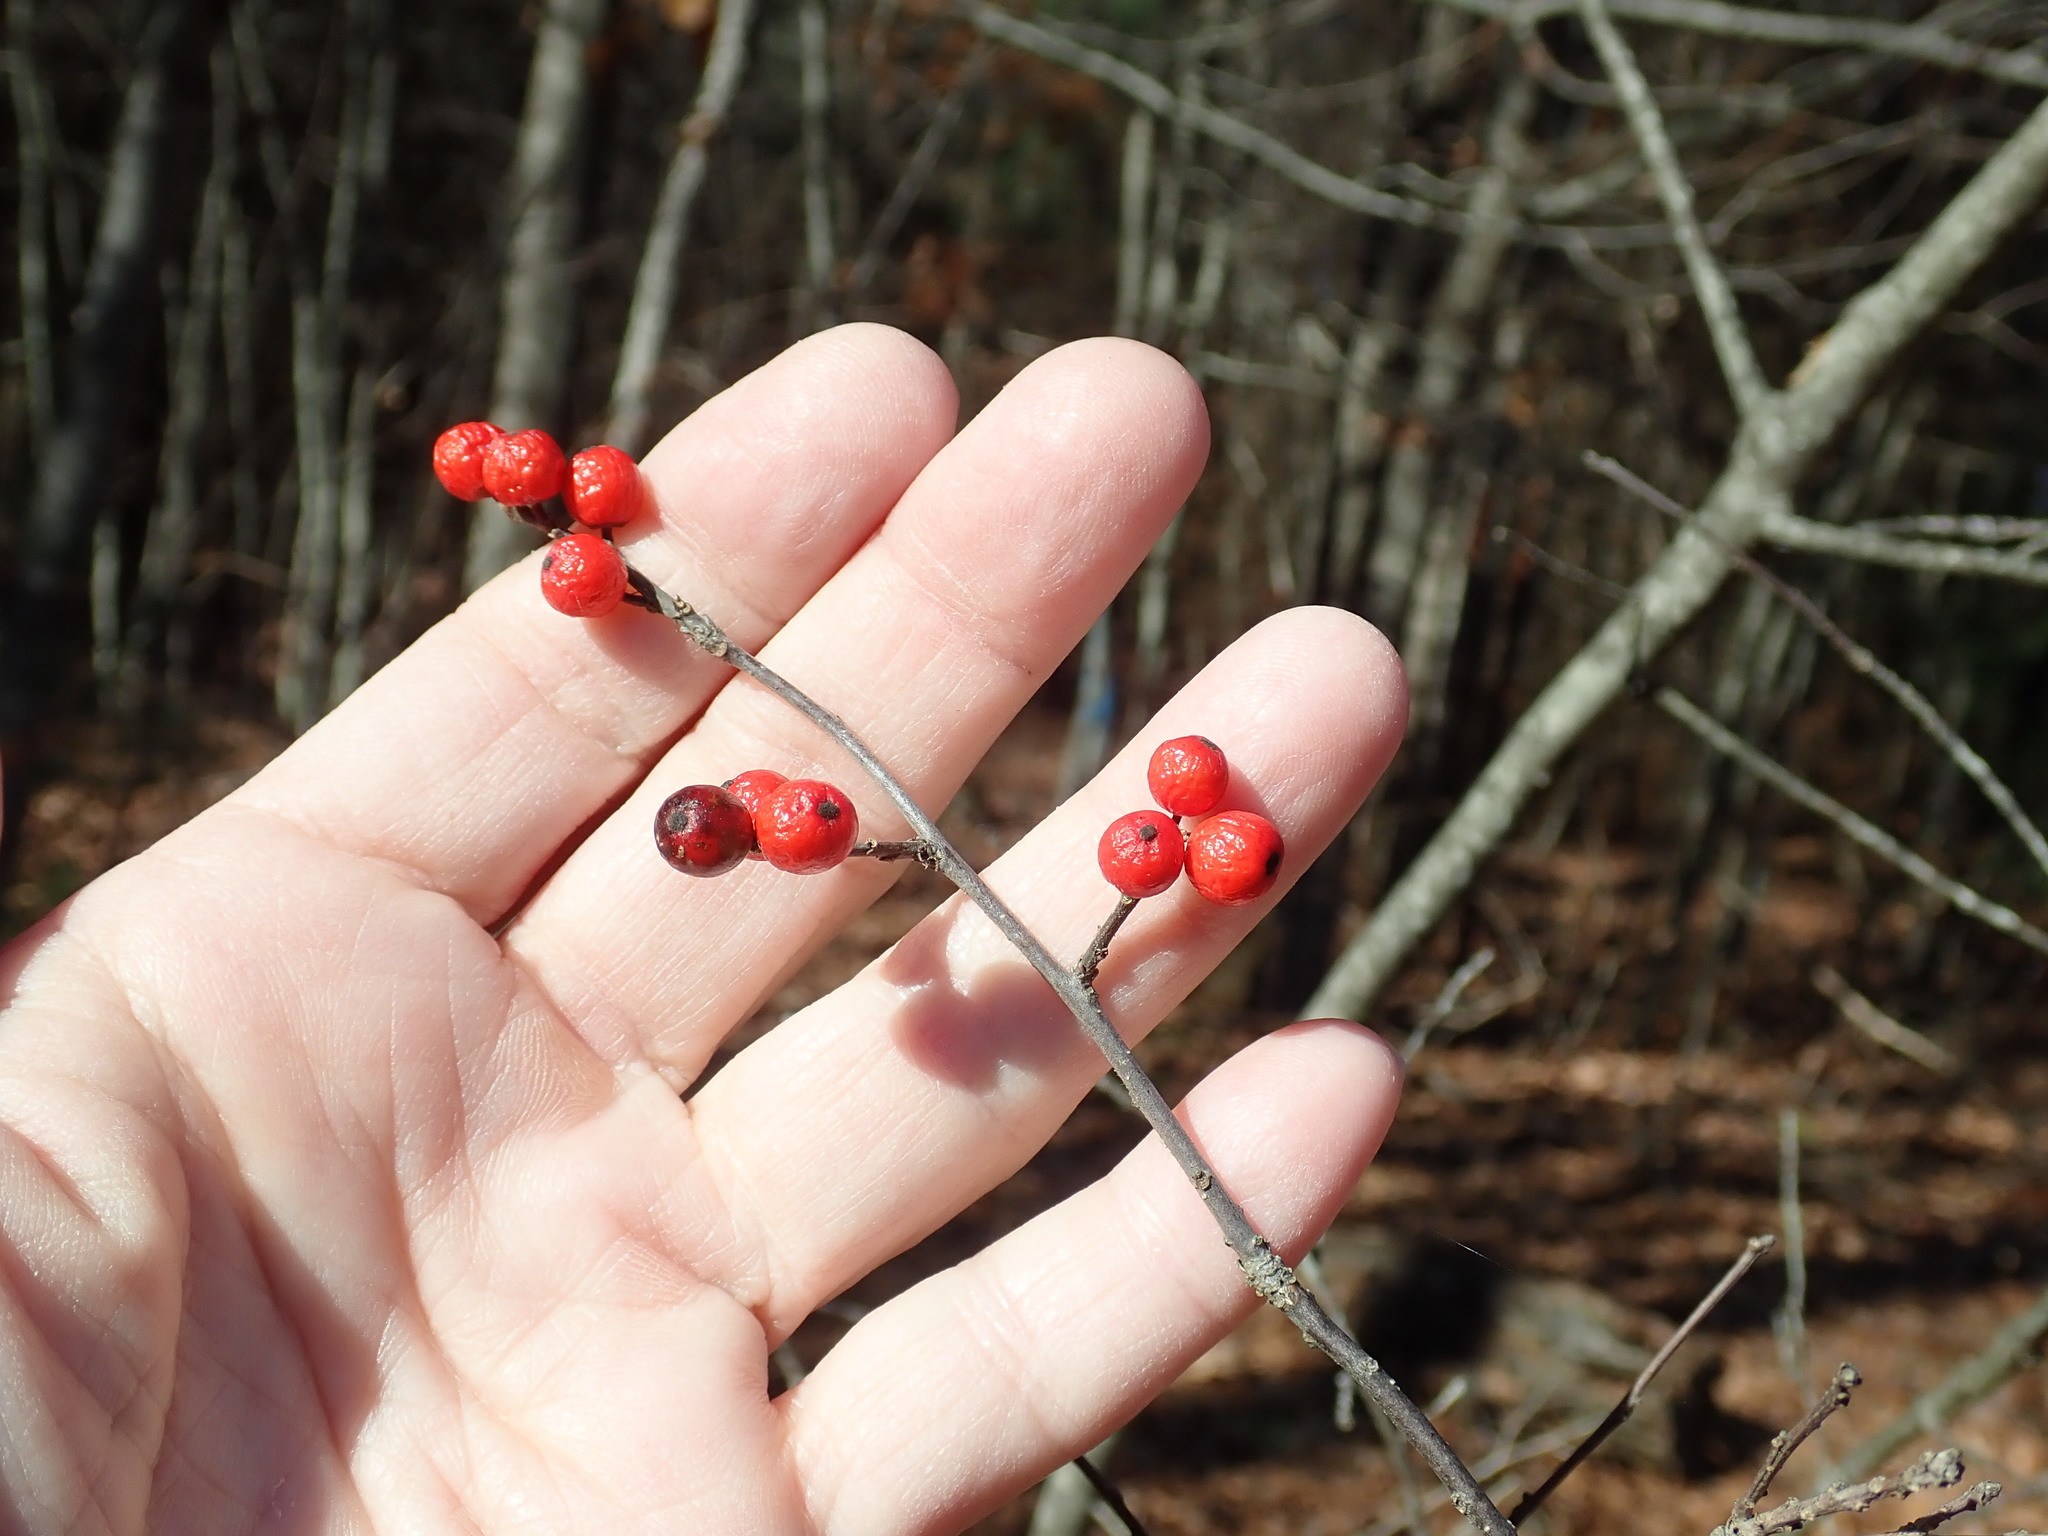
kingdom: Plantae
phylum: Tracheophyta
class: Magnoliopsida
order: Aquifoliales
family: Aquifoliaceae
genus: Ilex
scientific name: Ilex verticillata
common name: Virginia winterberry
